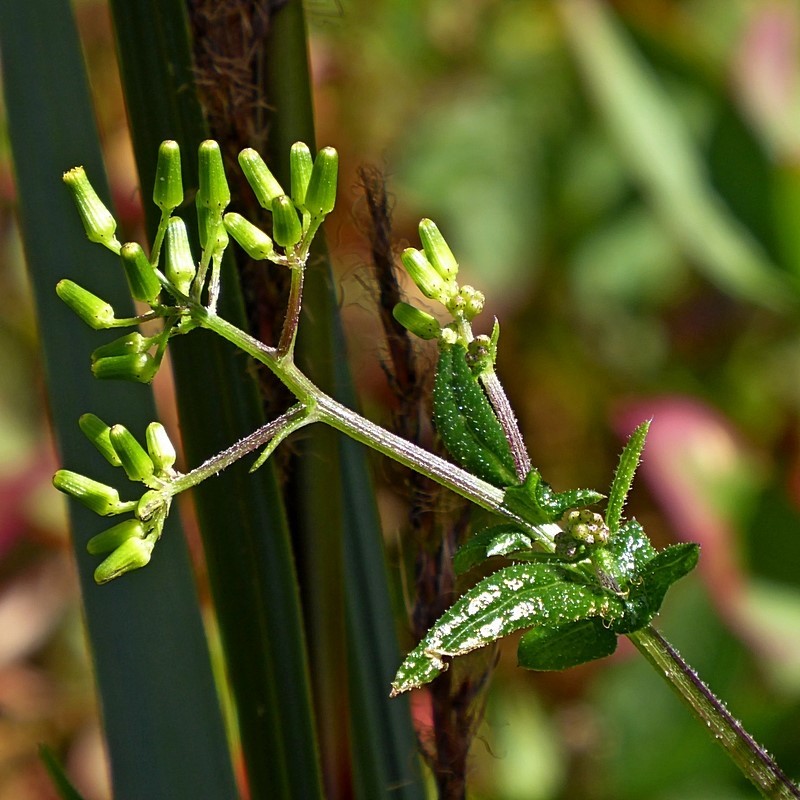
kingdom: Plantae
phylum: Tracheophyta
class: Magnoliopsida
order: Asterales
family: Asteraceae
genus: Senecio
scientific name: Senecio hispidulus
